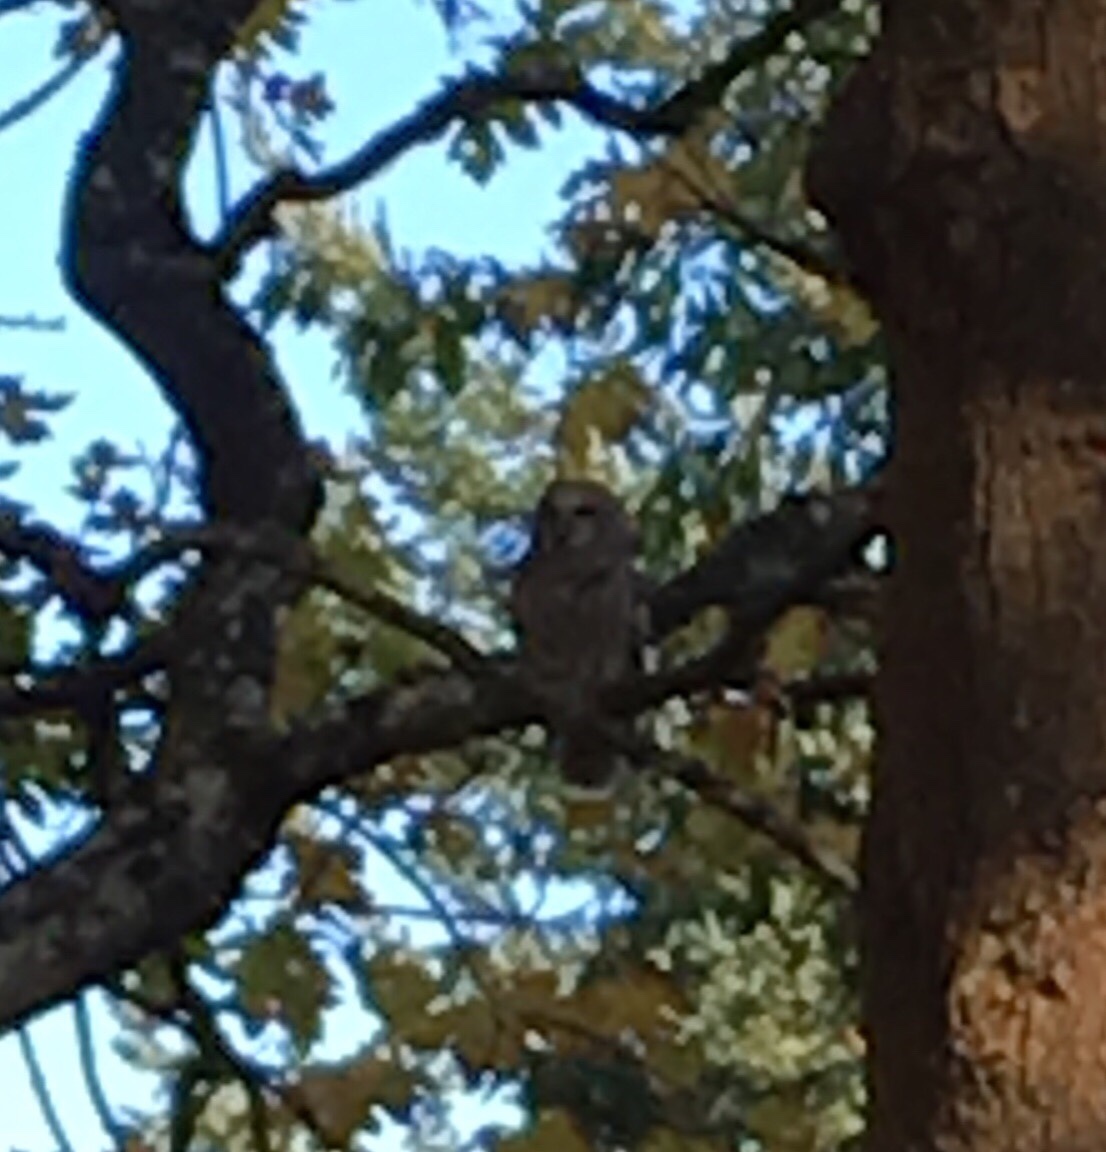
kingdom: Animalia
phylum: Chordata
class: Aves
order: Strigiformes
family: Strigidae
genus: Strix
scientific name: Strix varia
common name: Barred owl
